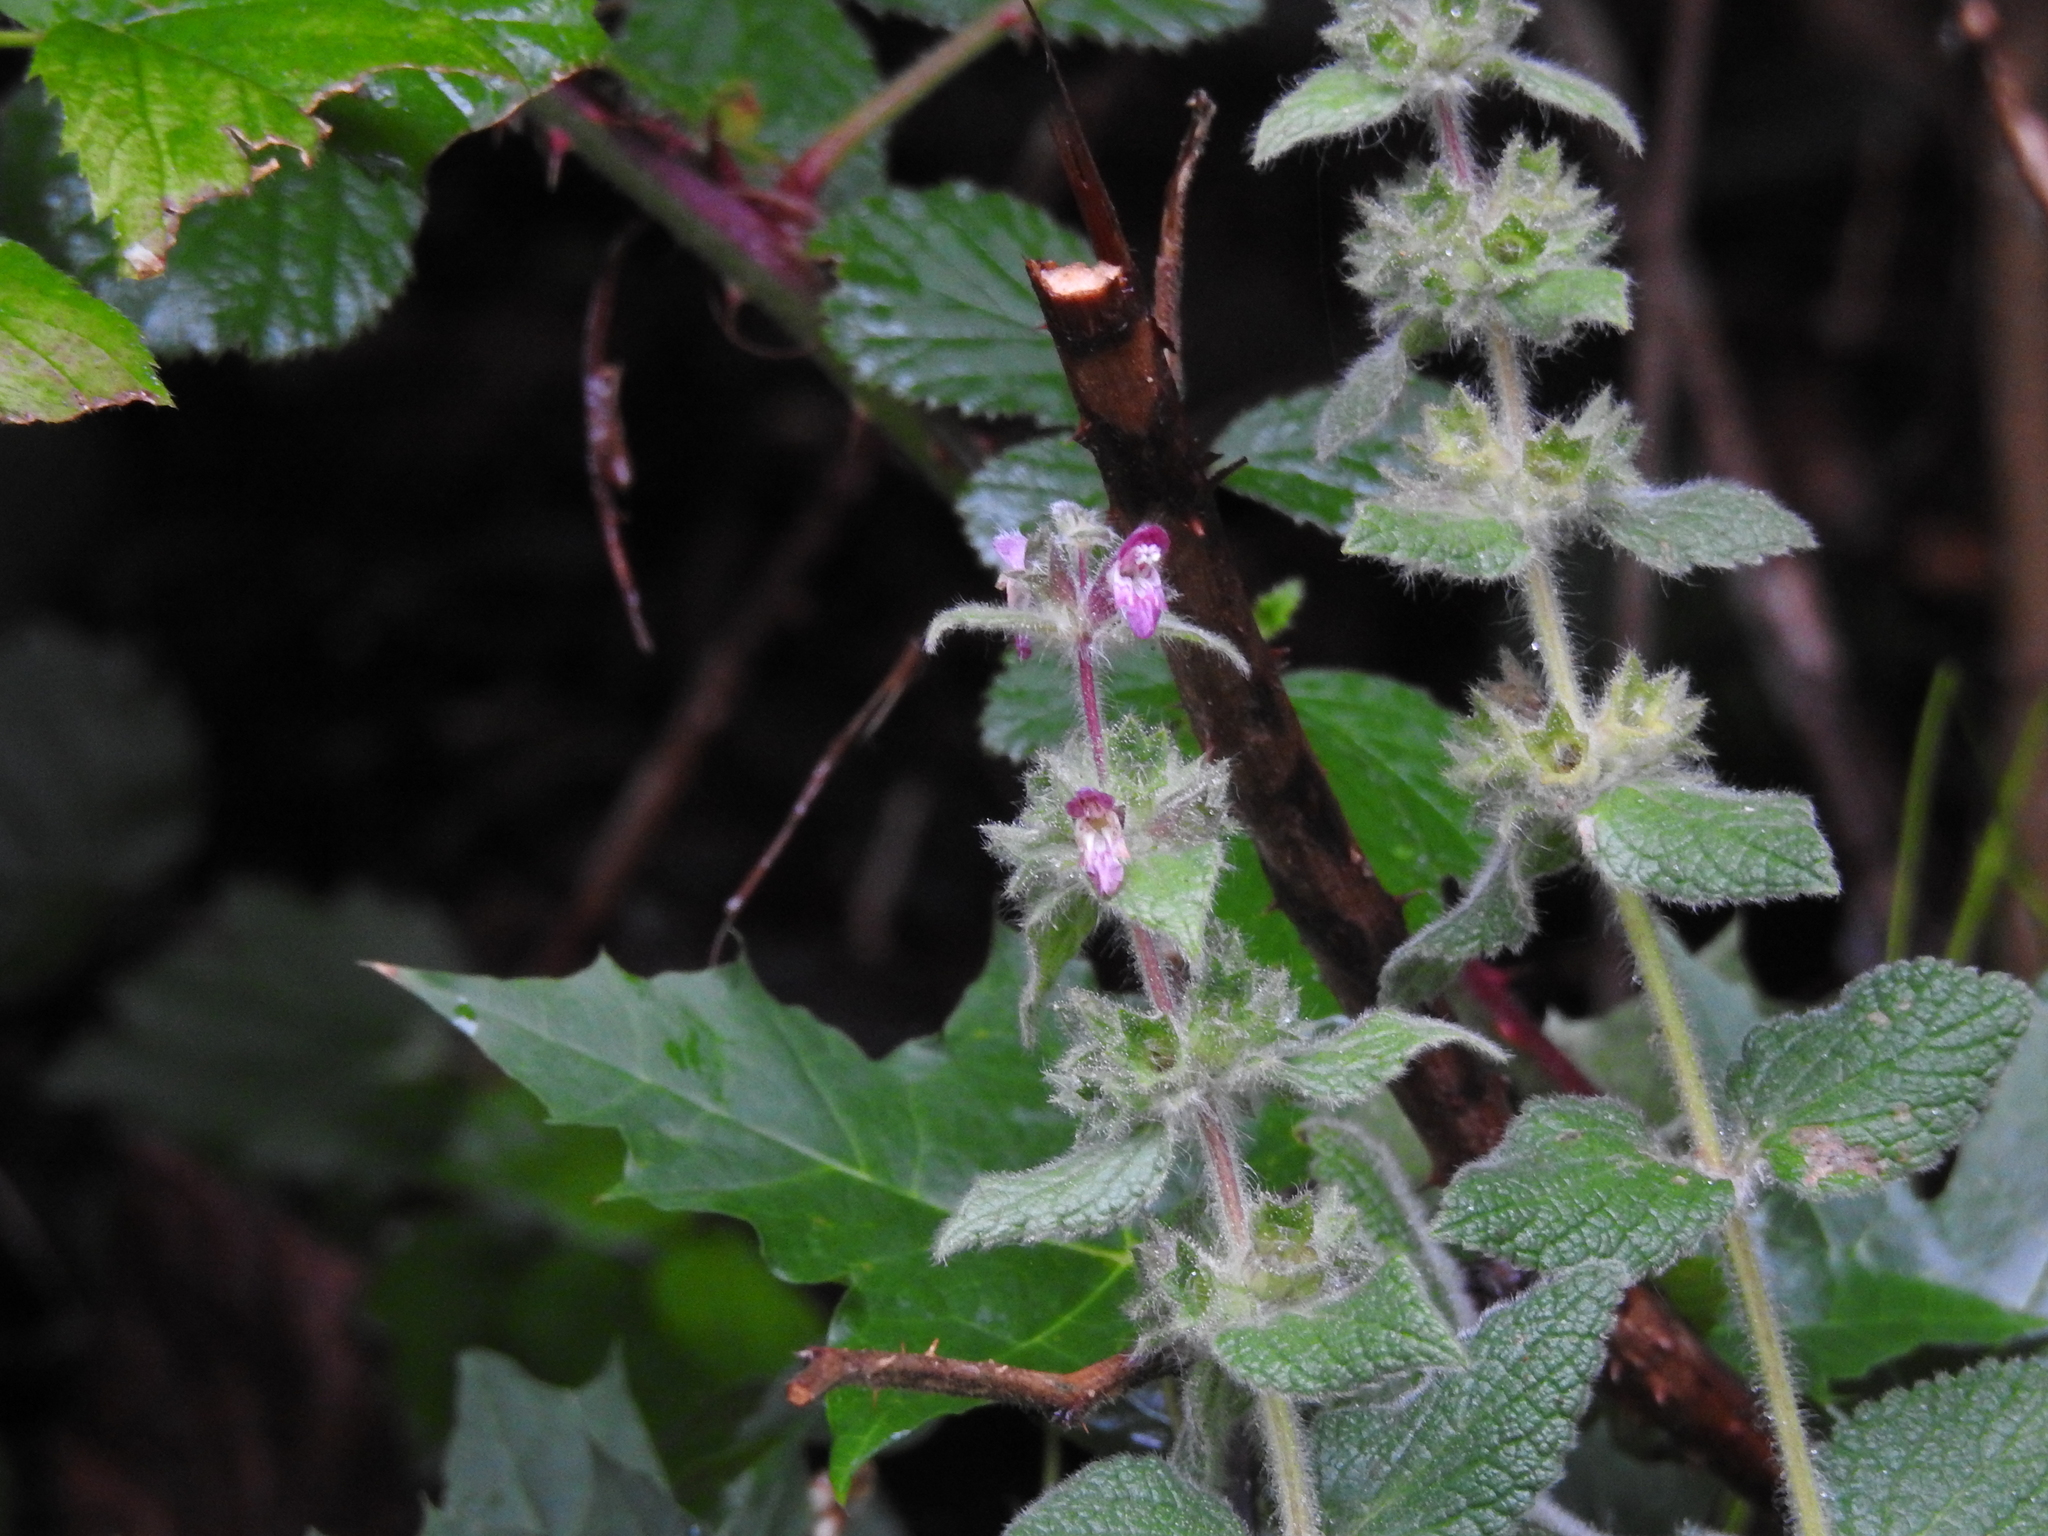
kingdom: Plantae
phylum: Tracheophyta
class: Magnoliopsida
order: Lamiales
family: Lamiaceae
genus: Stachys
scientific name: Stachys sylvatica
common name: Hedge woundwort
